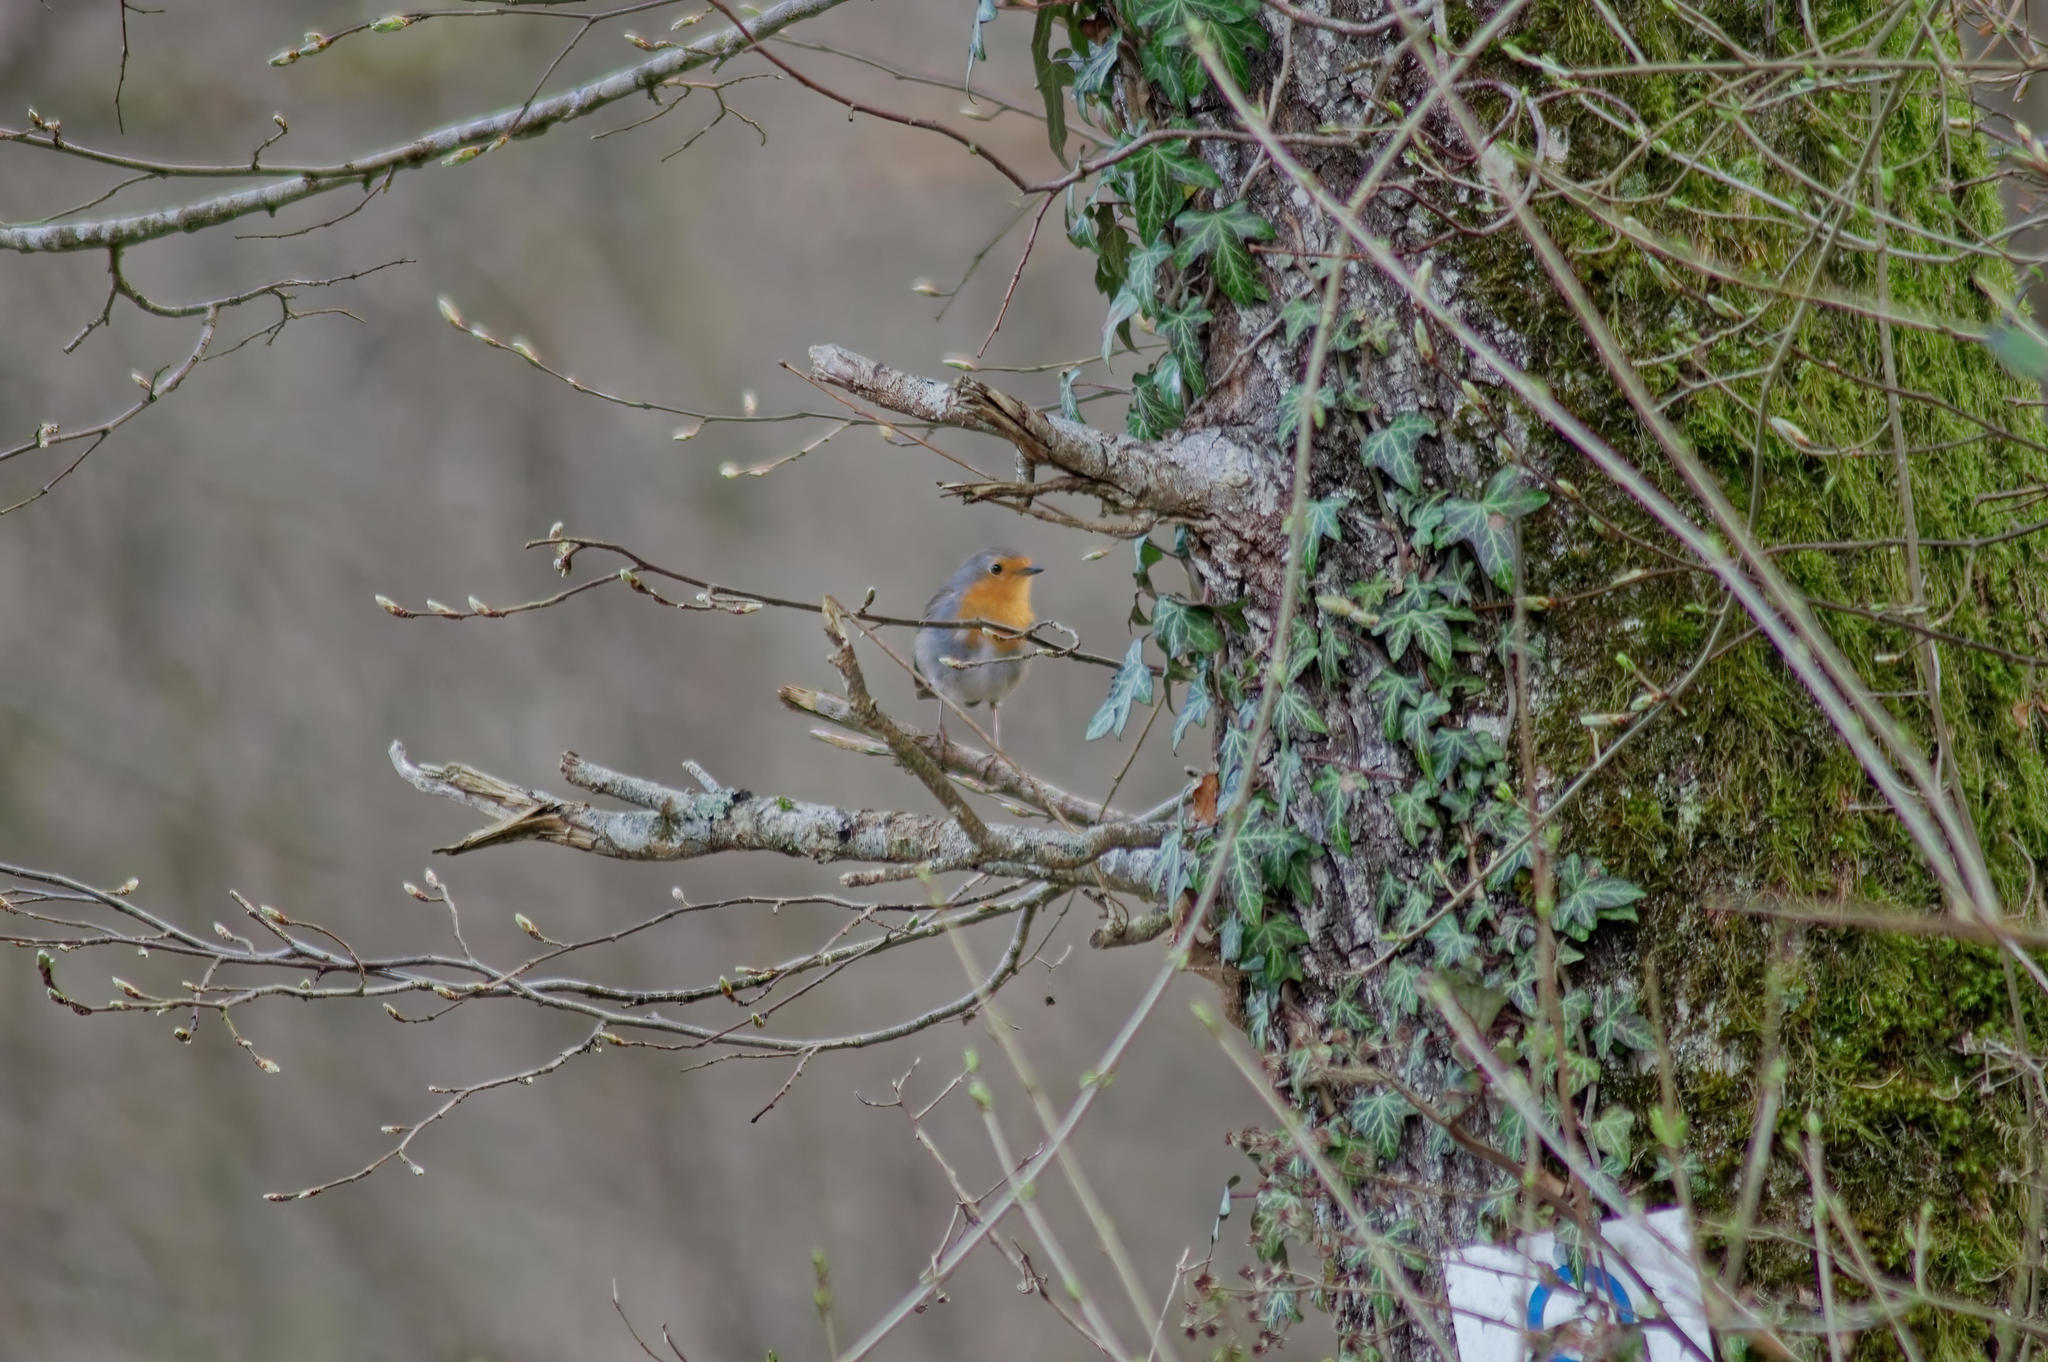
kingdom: Animalia
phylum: Chordata
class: Aves
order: Passeriformes
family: Muscicapidae
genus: Erithacus
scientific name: Erithacus rubecula
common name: European robin
